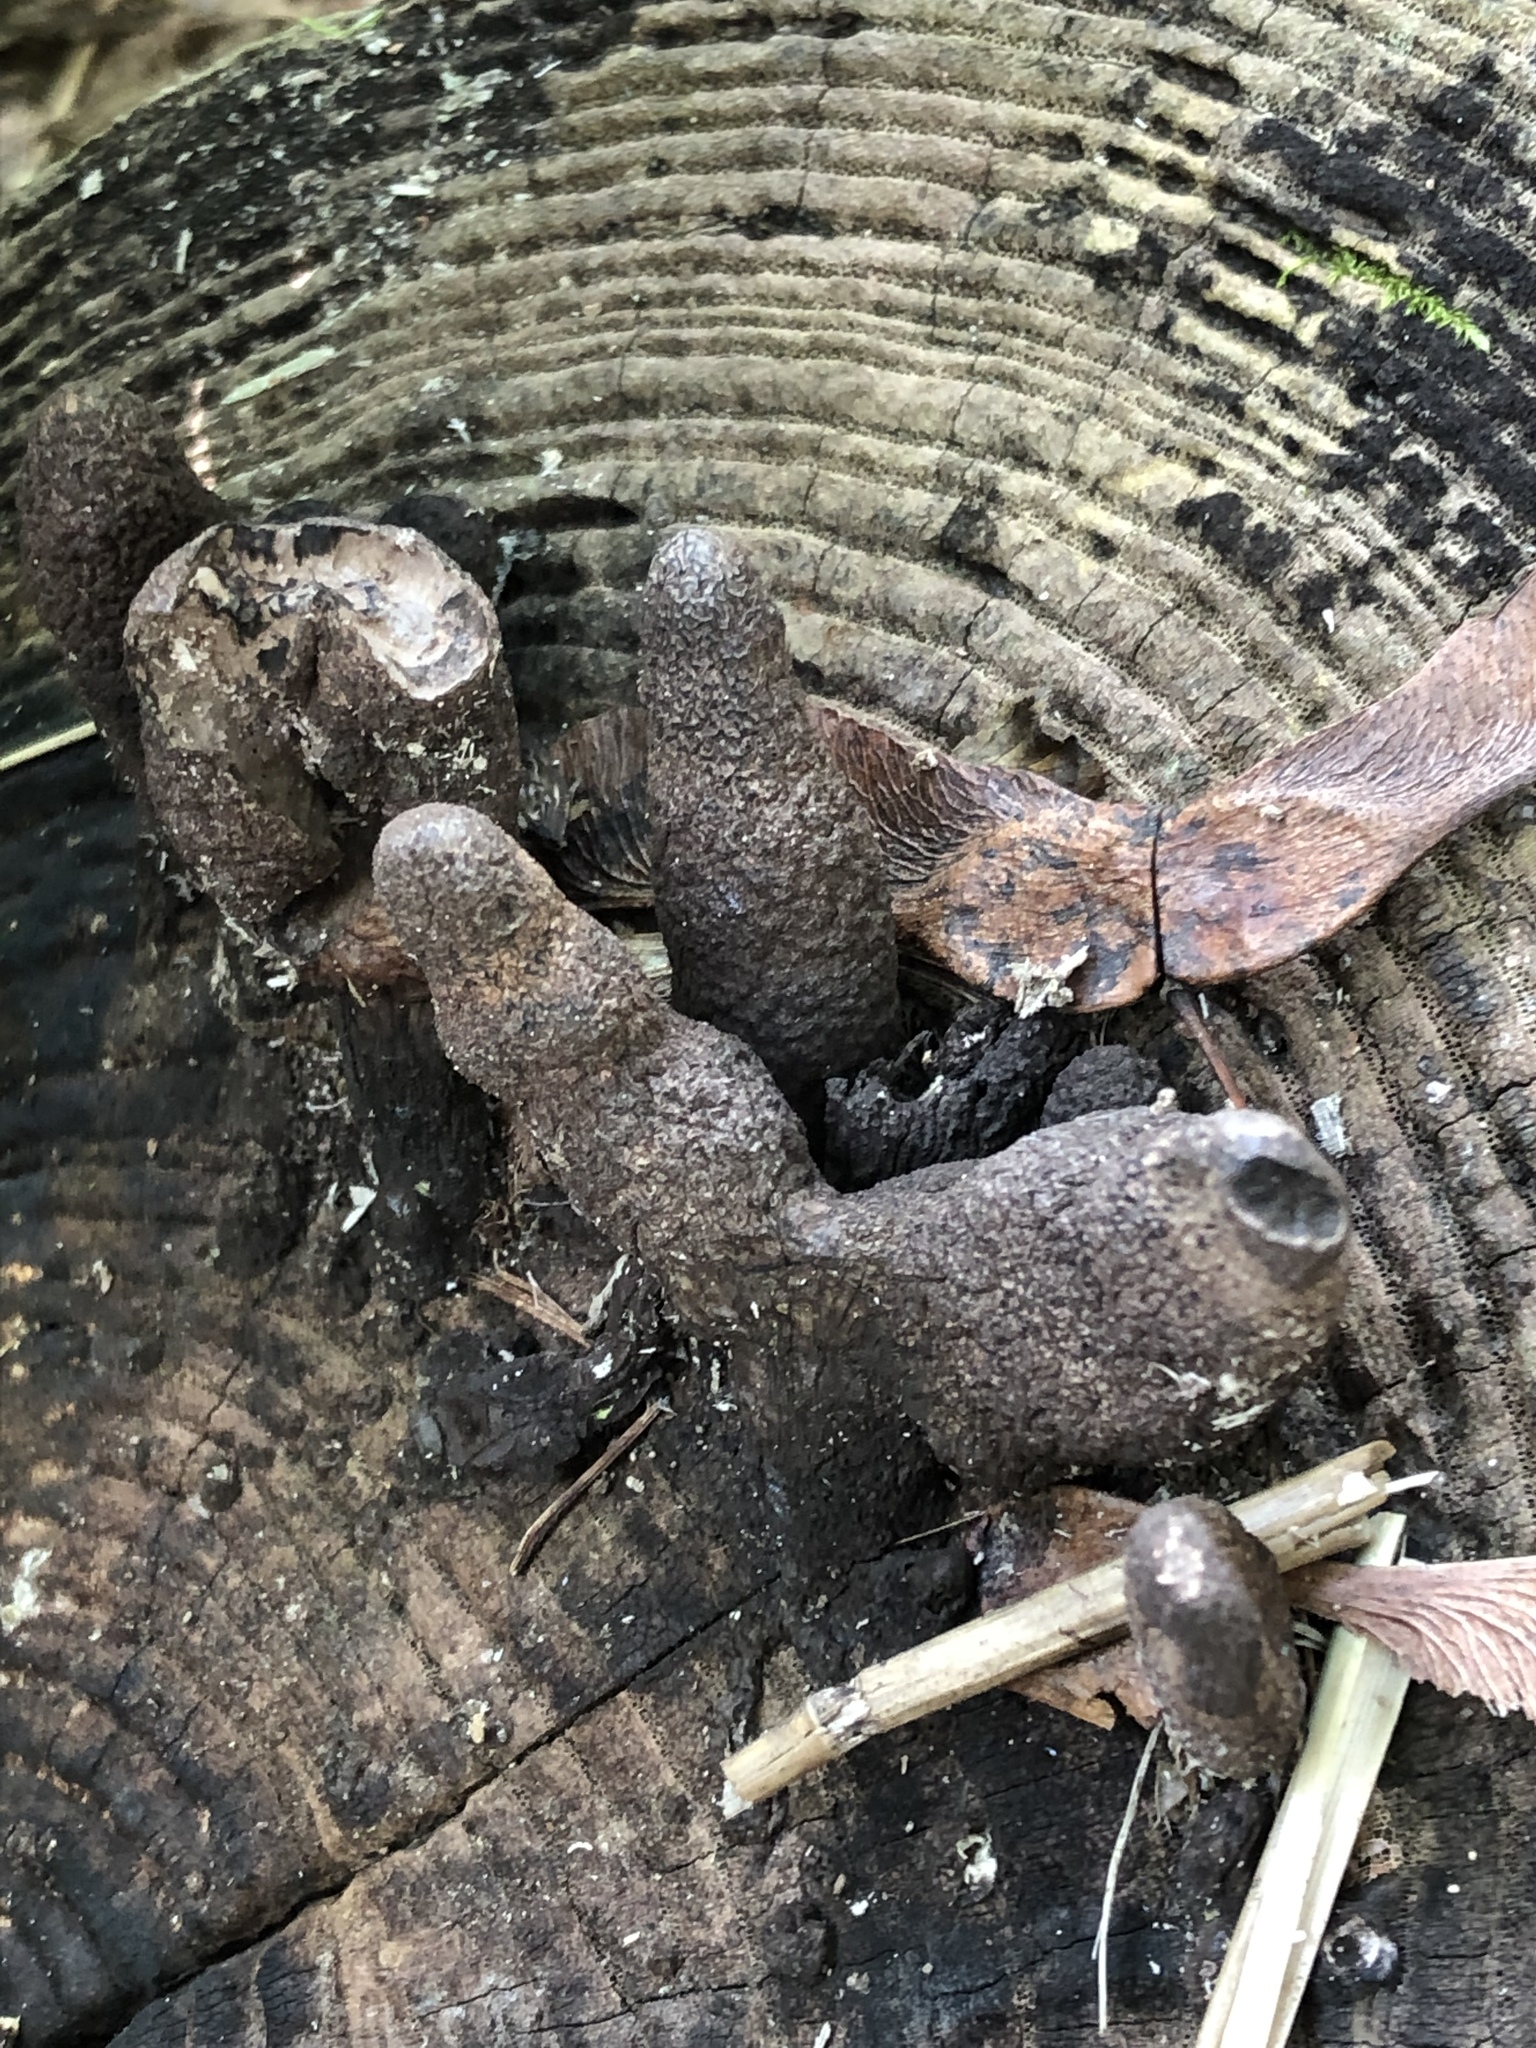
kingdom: Fungi
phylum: Ascomycota
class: Sordariomycetes
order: Xylariales
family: Xylariaceae
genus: Xylaria
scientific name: Xylaria polymorpha
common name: Dead man's fingers
